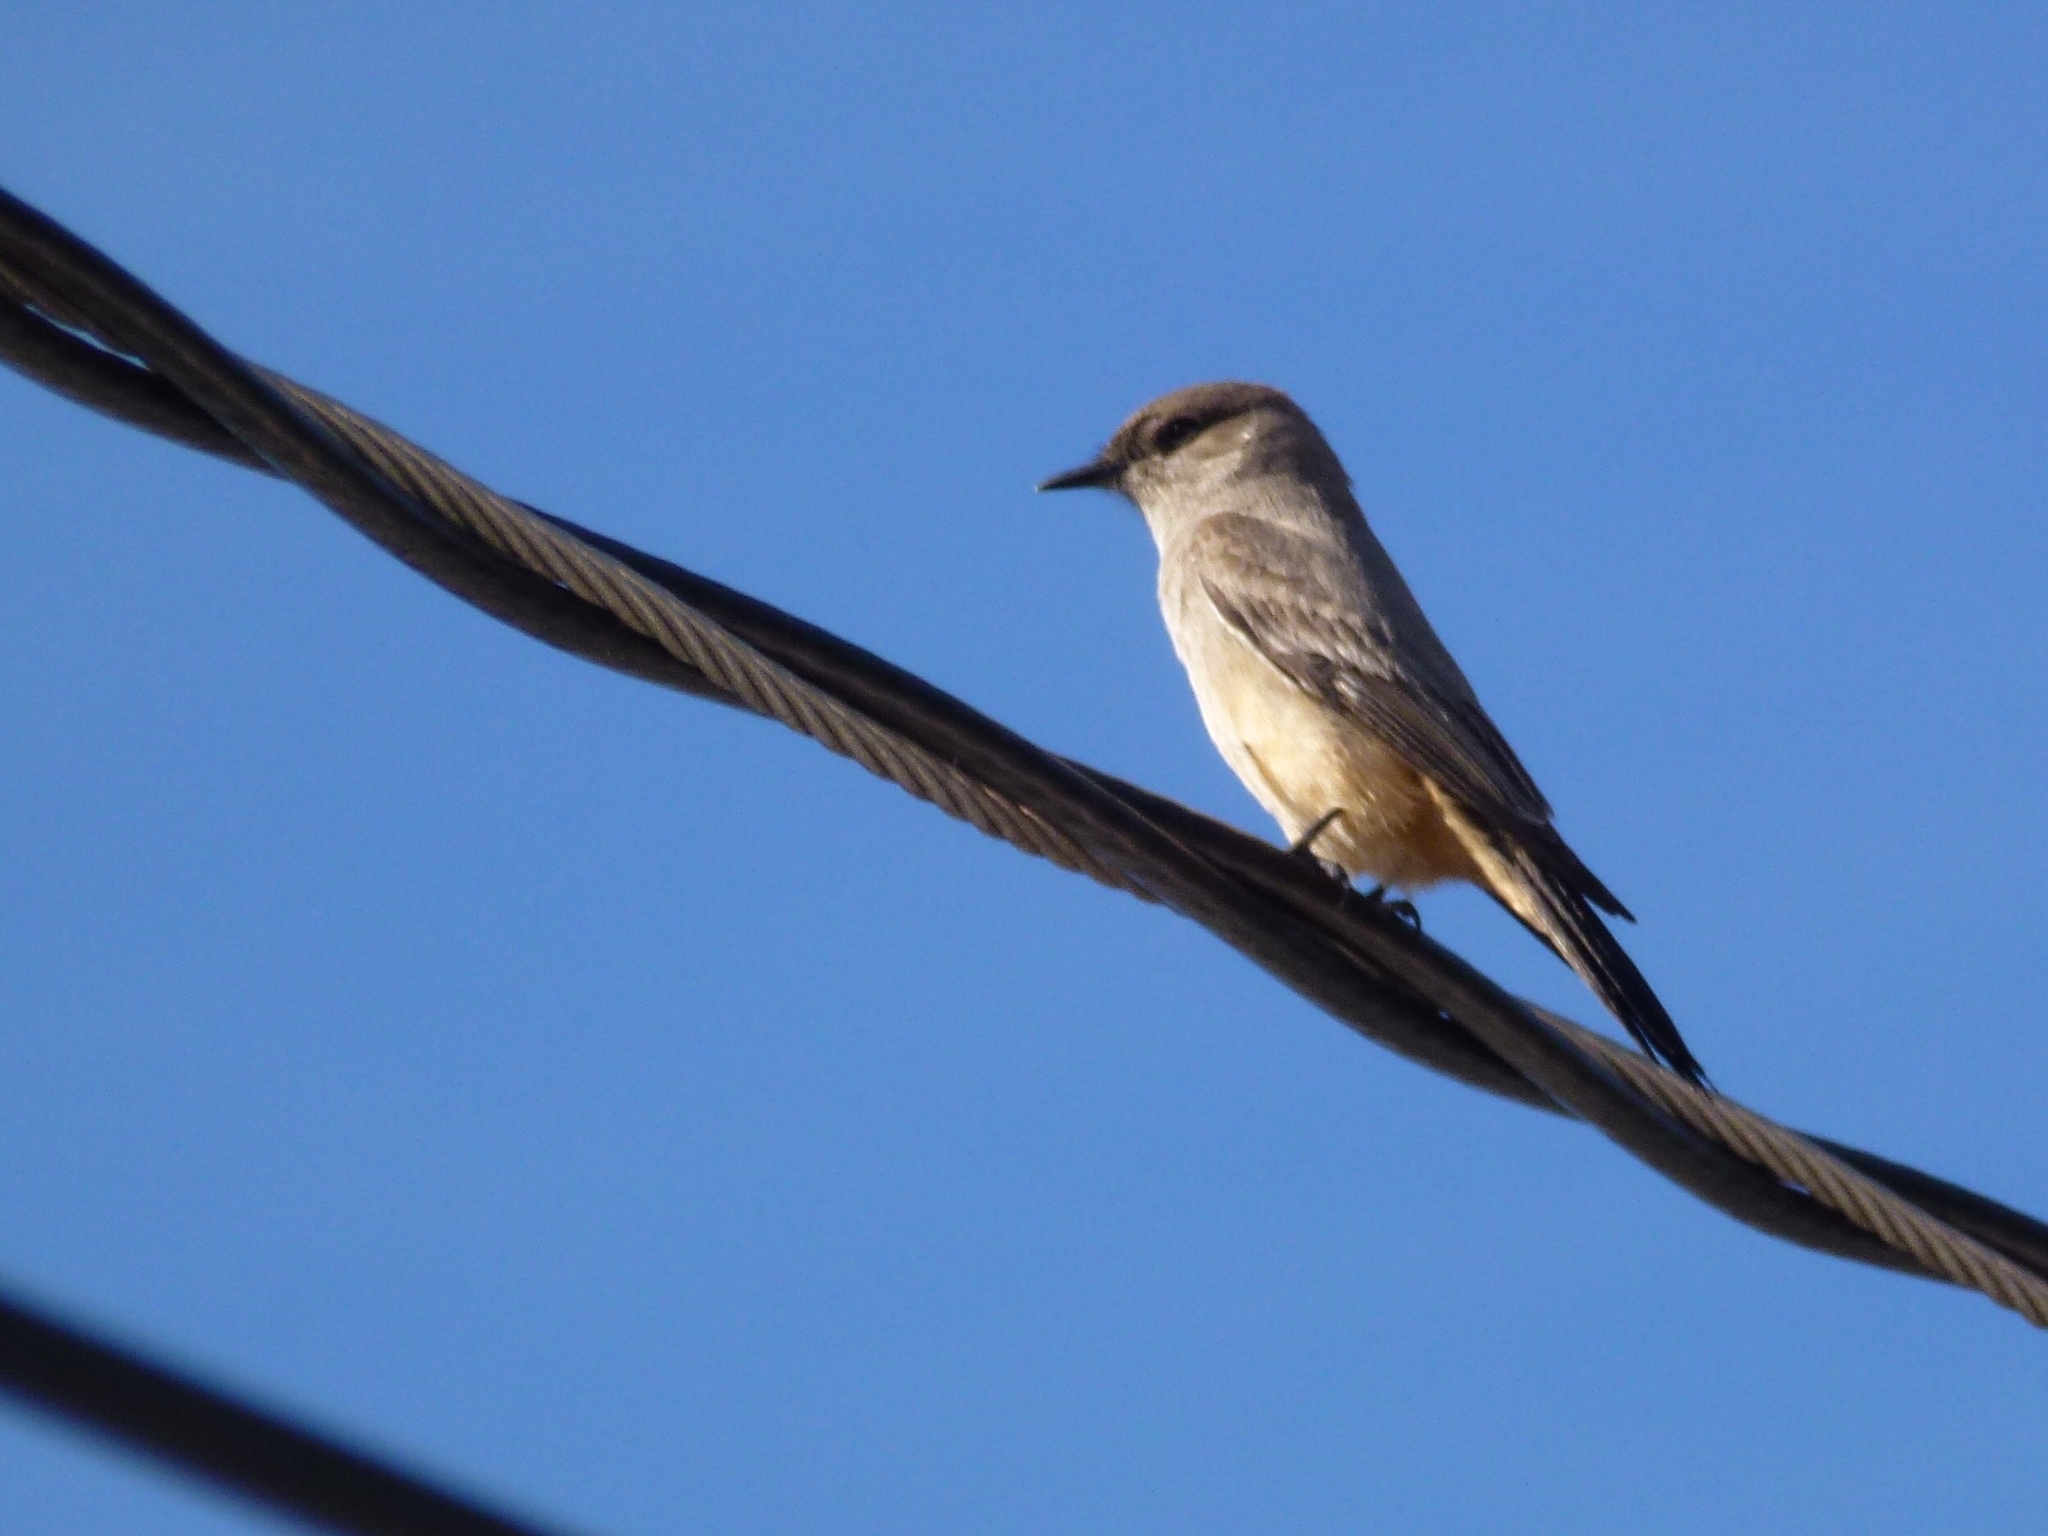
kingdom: Animalia
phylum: Chordata
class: Aves
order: Passeriformes
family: Tyrannidae
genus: Sayornis
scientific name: Sayornis saya
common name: Say's phoebe
